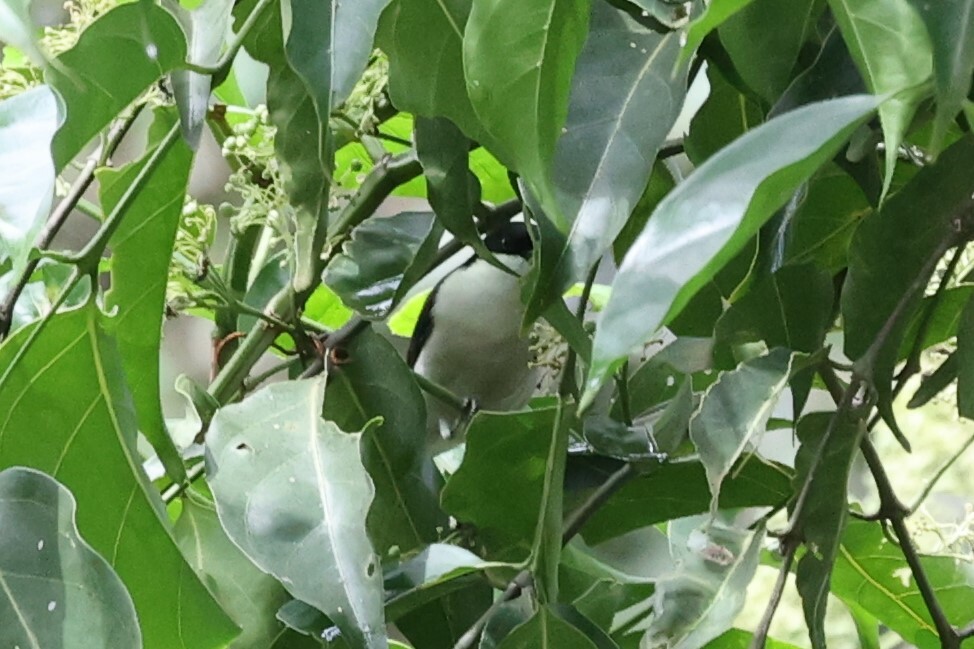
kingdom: Animalia
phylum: Chordata
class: Aves
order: Passeriformes
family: Estrildidae
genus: Nigrita
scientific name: Nigrita fusconotus
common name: White-breasted nigrita
